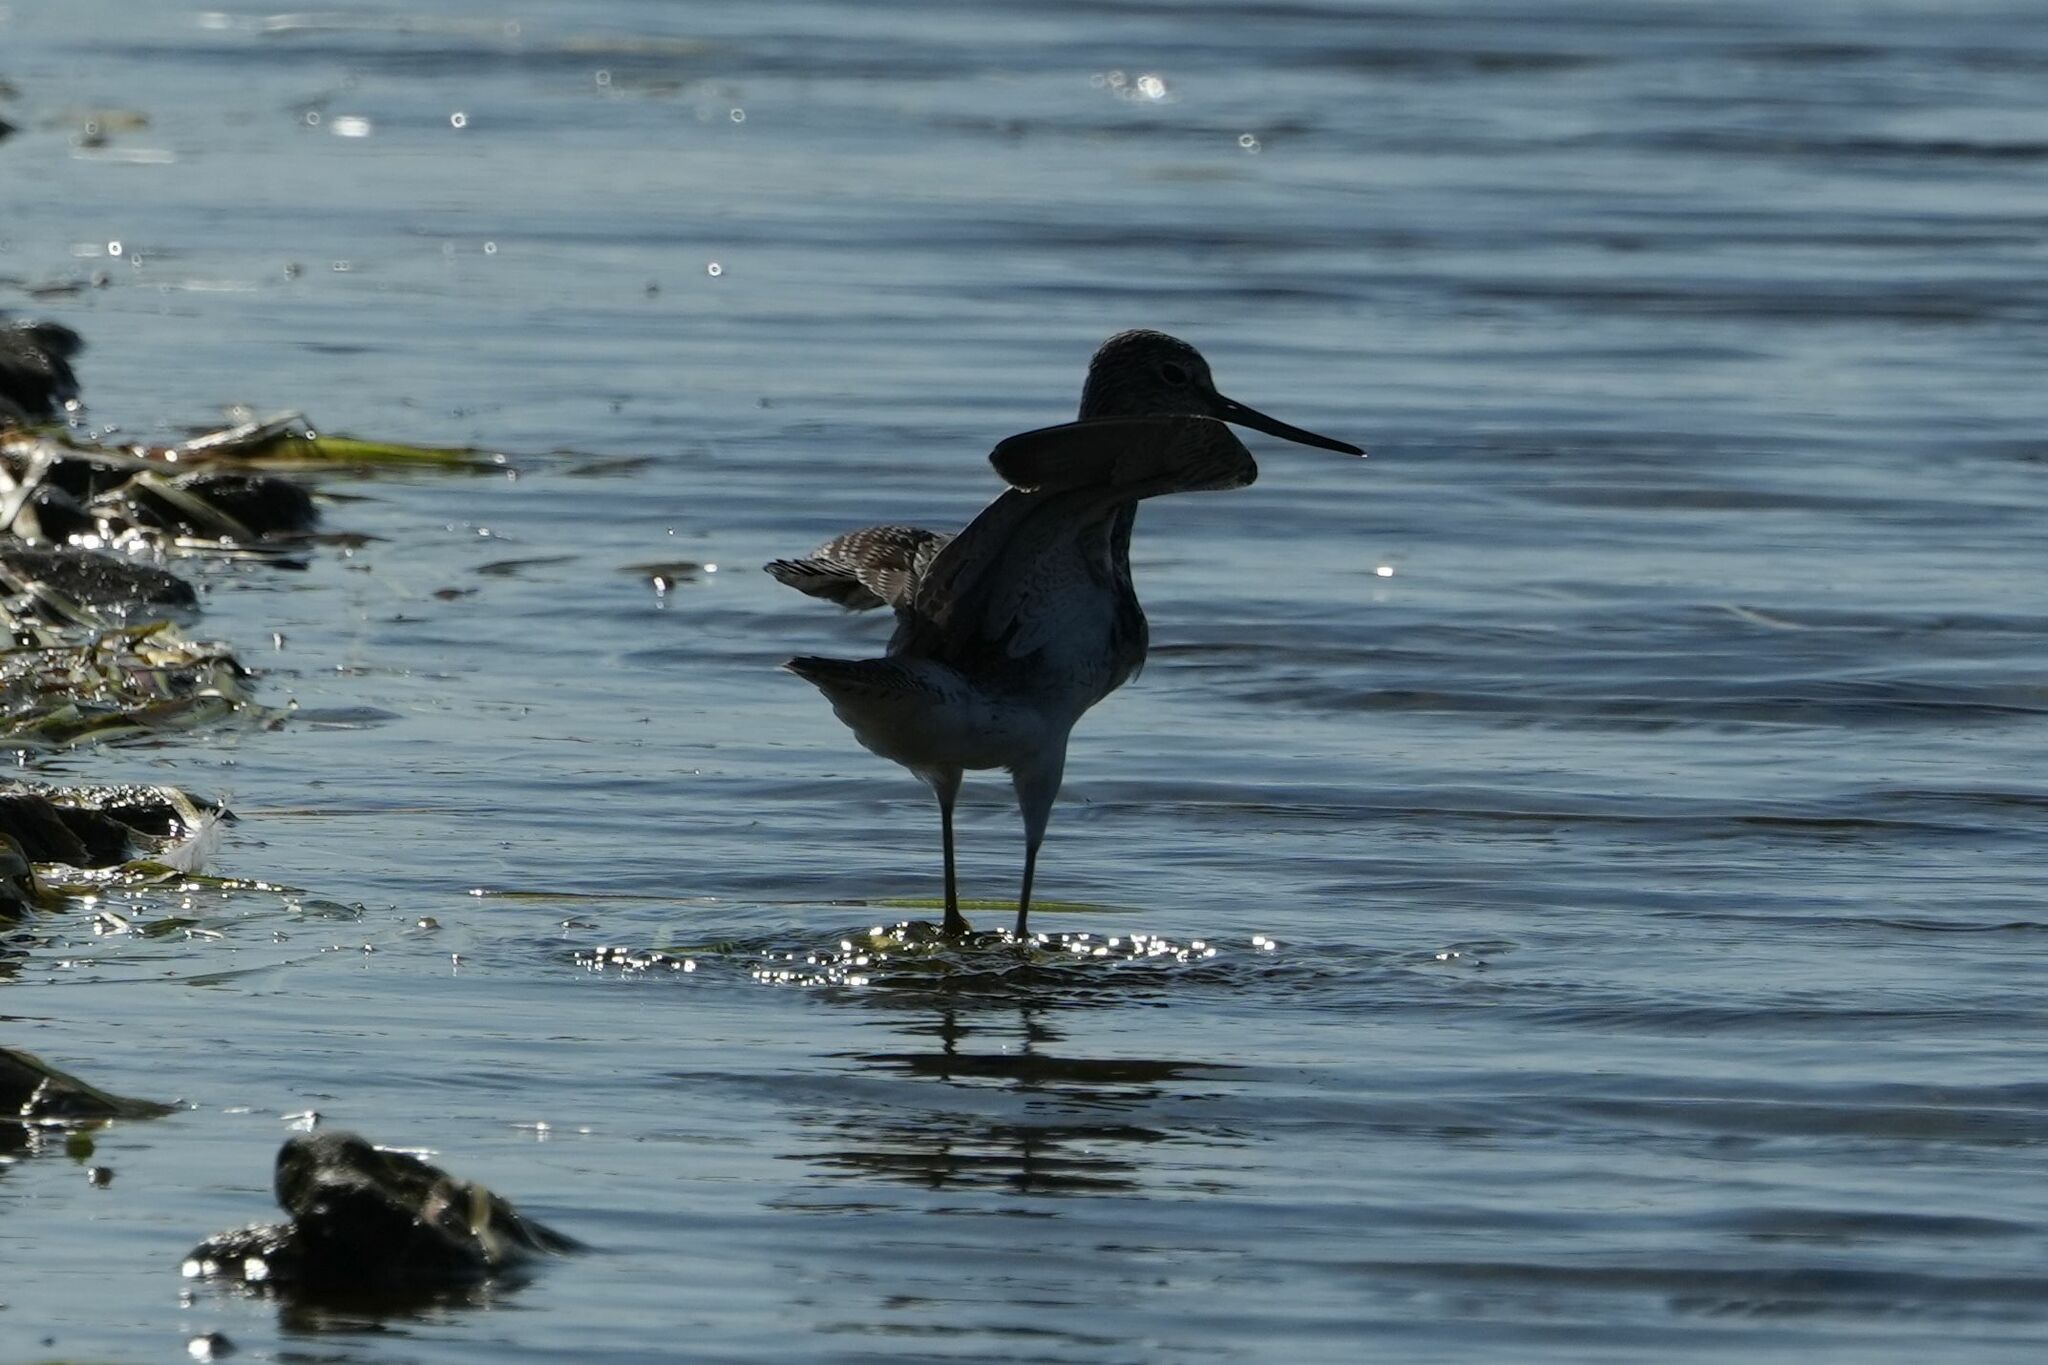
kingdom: Animalia
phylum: Chordata
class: Aves
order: Charadriiformes
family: Scolopacidae
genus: Tringa
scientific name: Tringa melanoleuca
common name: Greater yellowlegs
